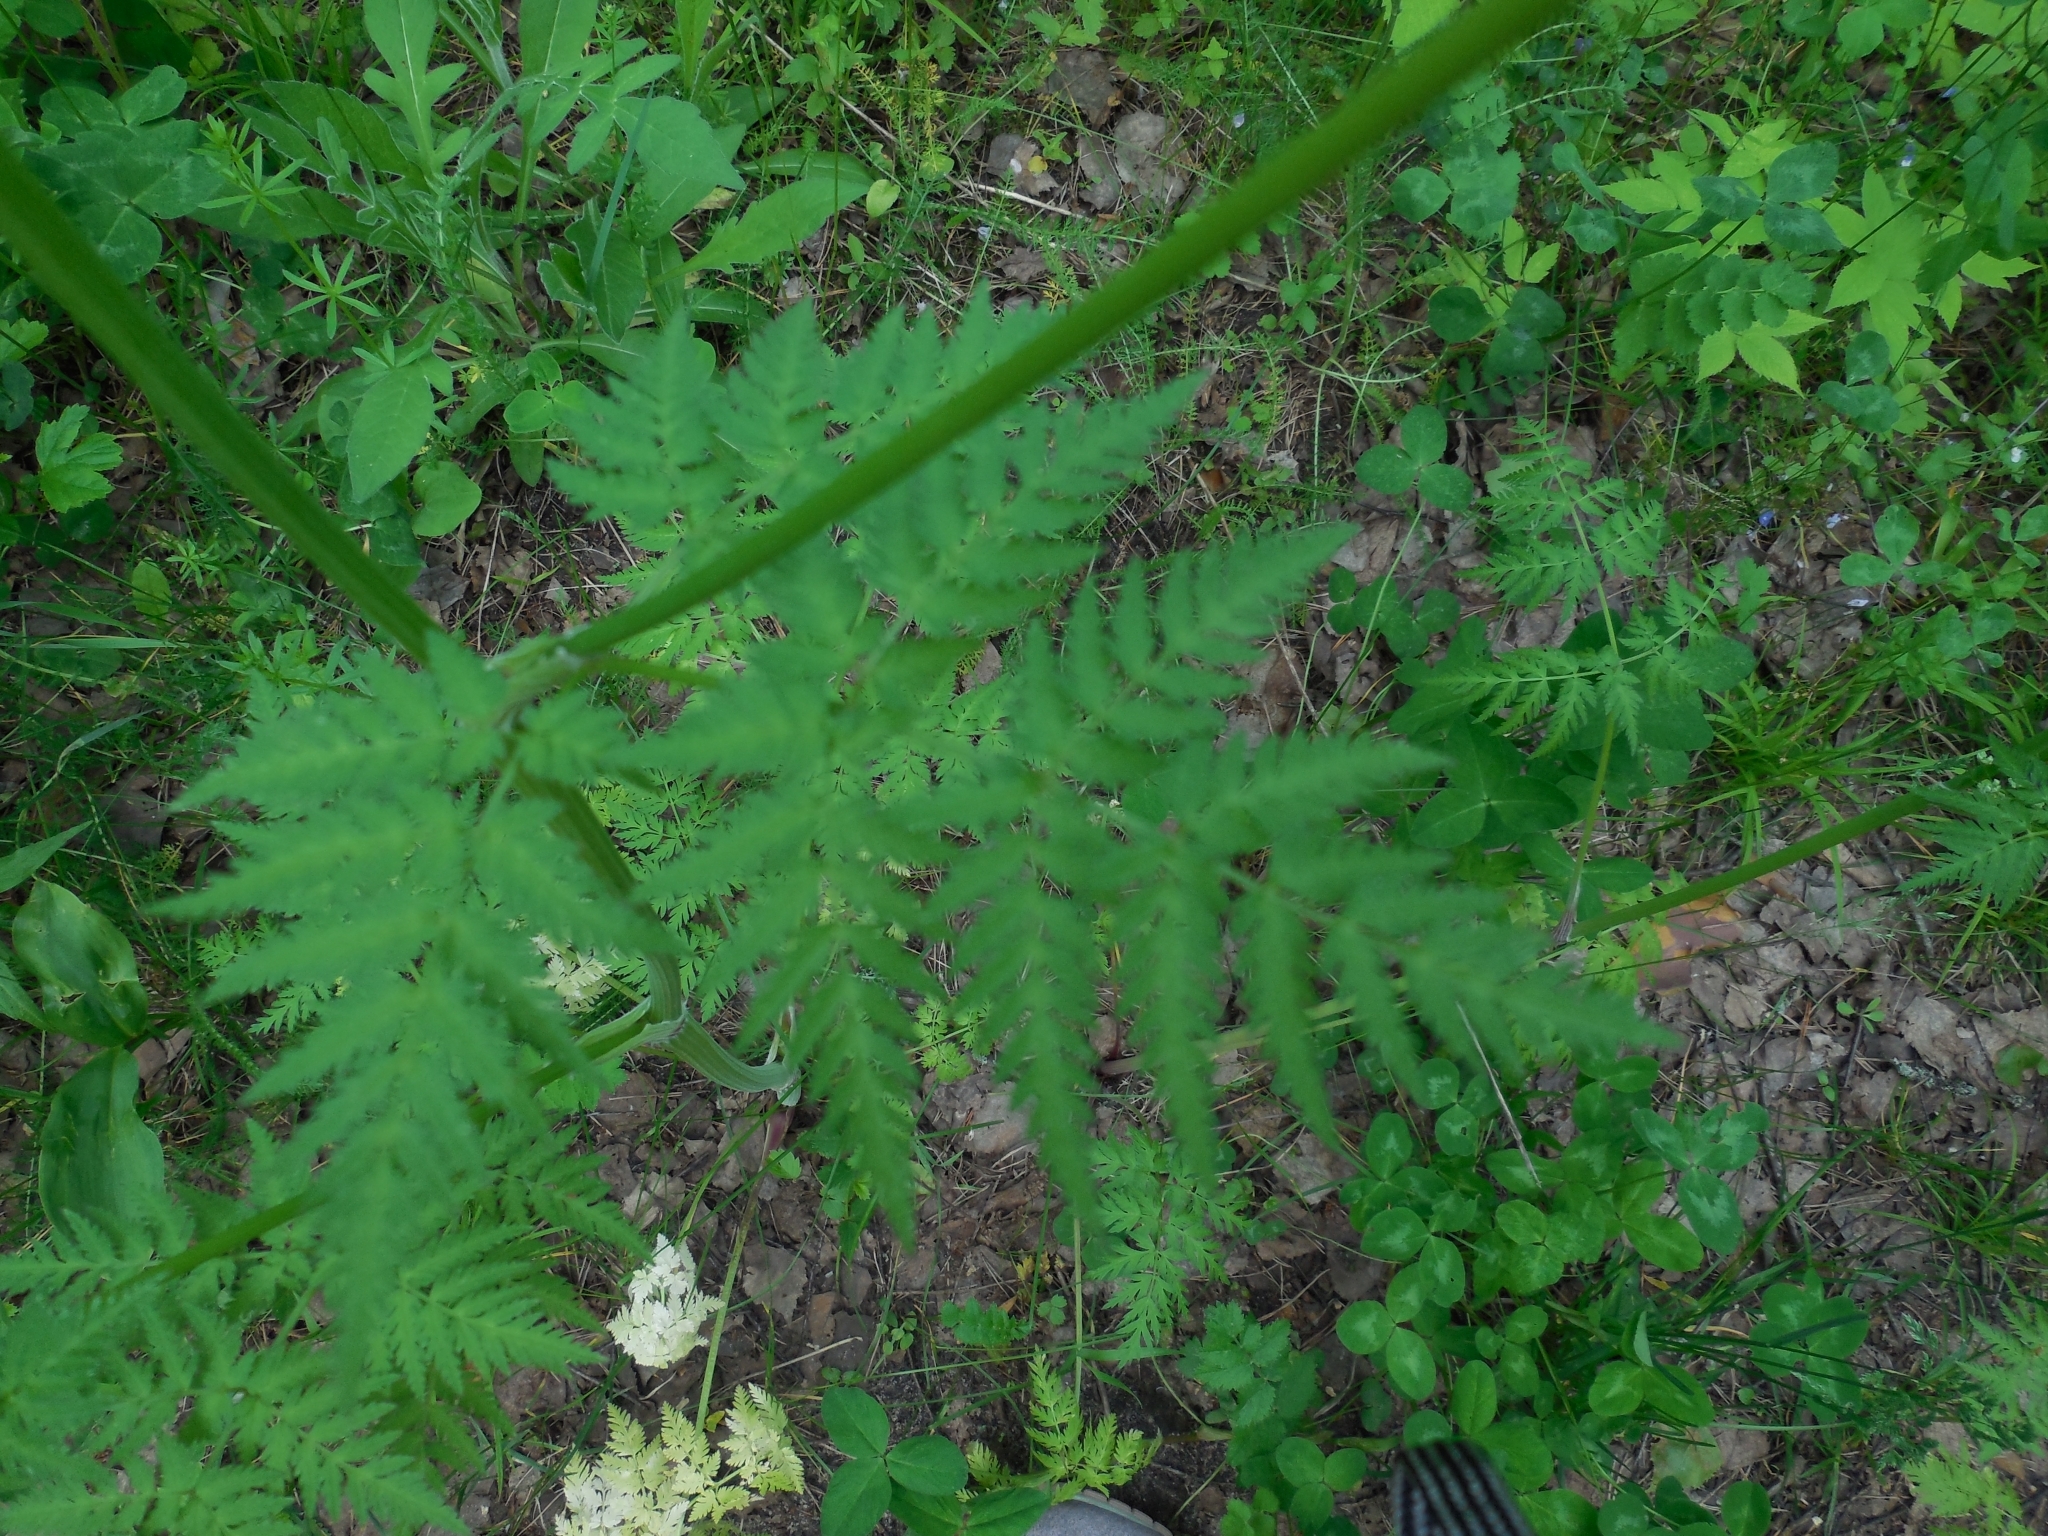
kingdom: Plantae
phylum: Tracheophyta
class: Magnoliopsida
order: Apiales
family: Apiaceae
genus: Anthriscus
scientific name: Anthriscus sylvestris
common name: Cow parsley
